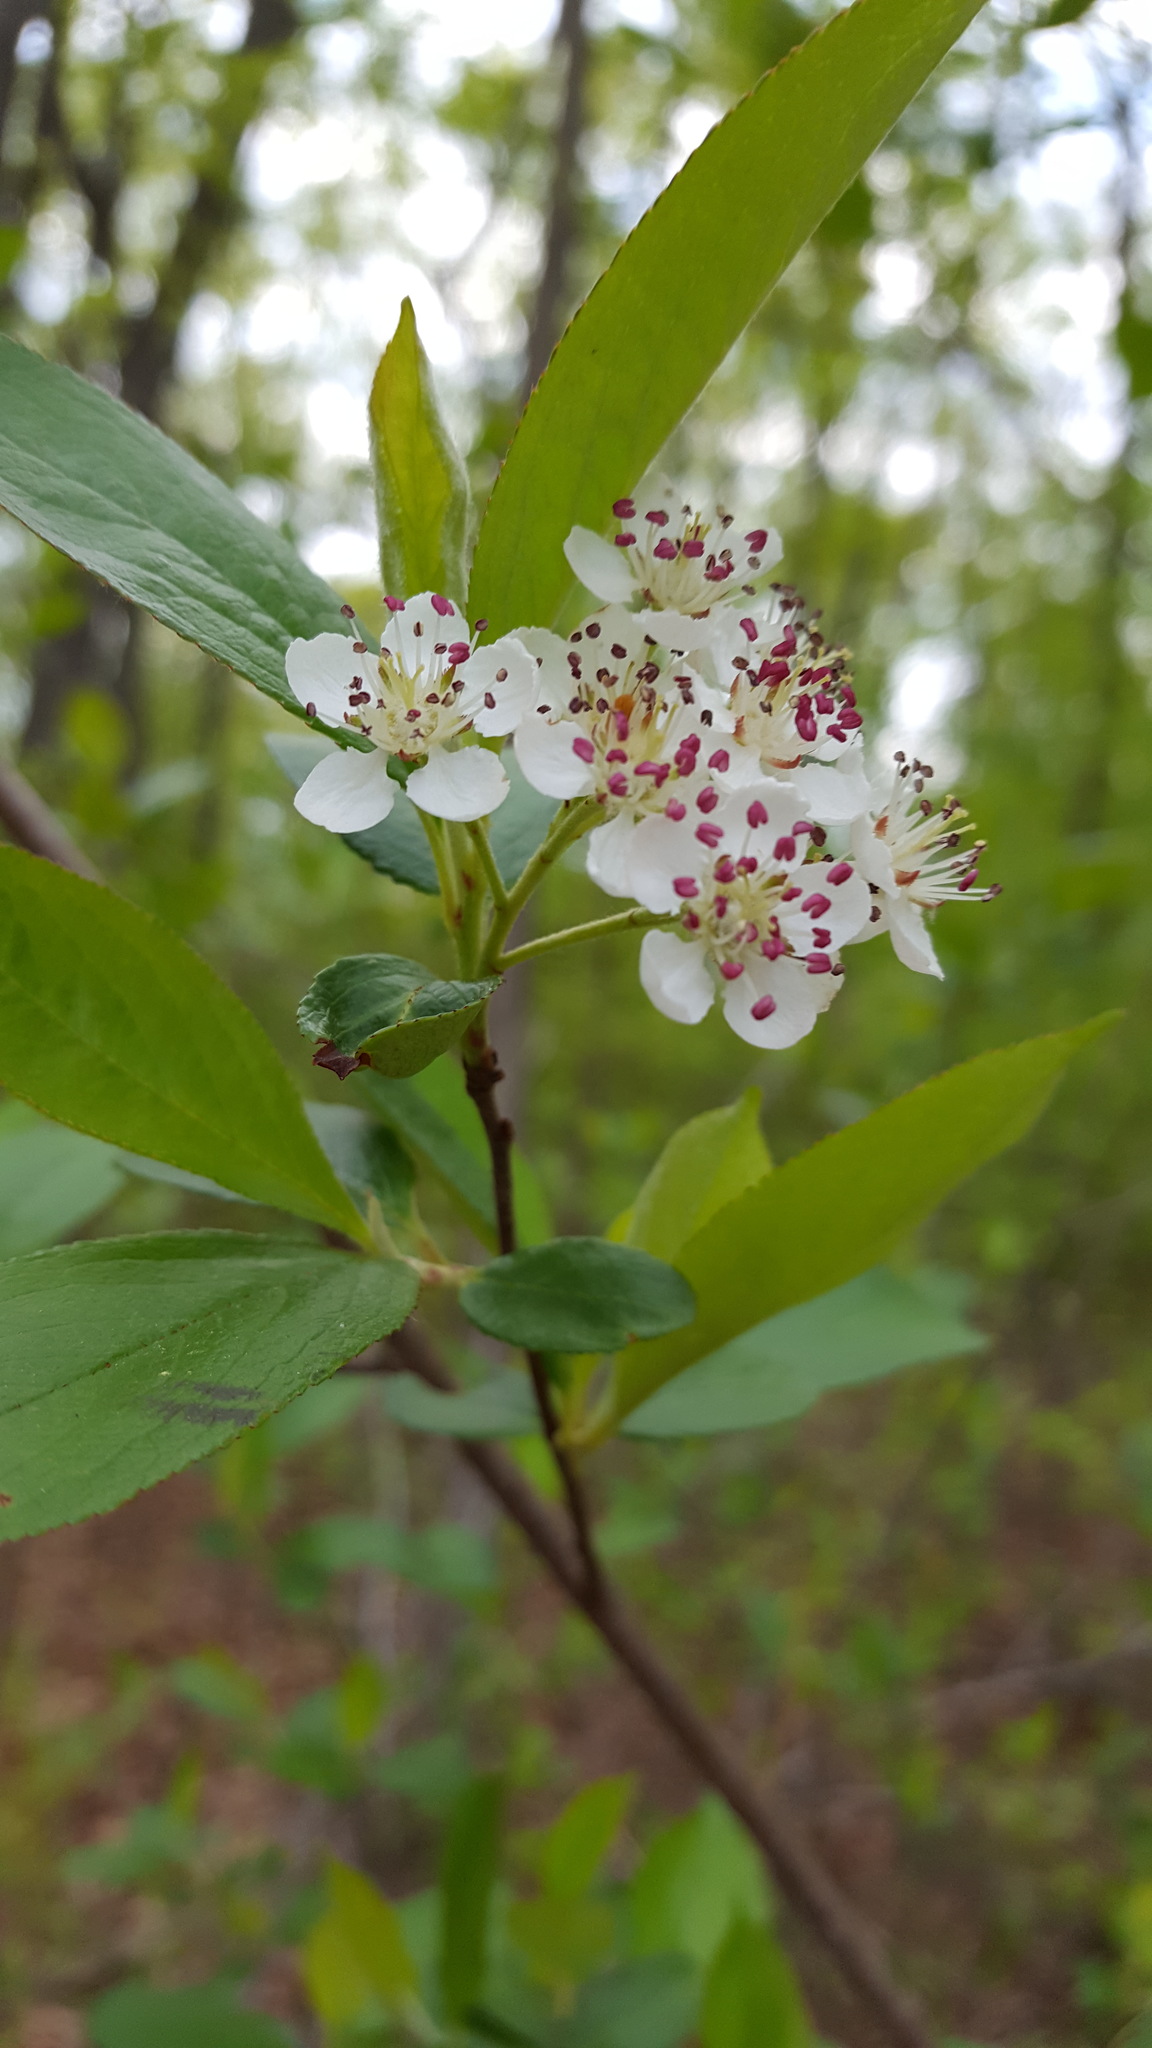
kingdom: Plantae
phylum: Tracheophyta
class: Magnoliopsida
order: Rosales
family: Rosaceae
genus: Aronia
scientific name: Aronia melanocarpa
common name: Black chokeberry
